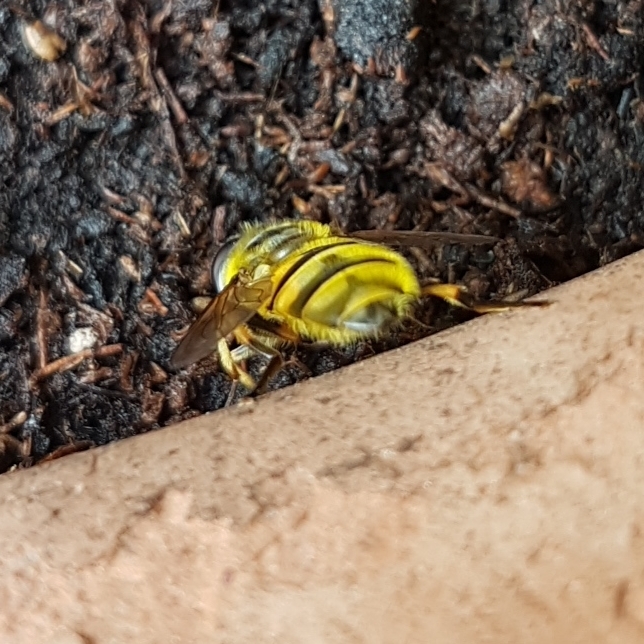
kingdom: Animalia
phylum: Arthropoda
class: Insecta
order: Diptera
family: Syrphidae
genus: Myathropa
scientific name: Myathropa florea
